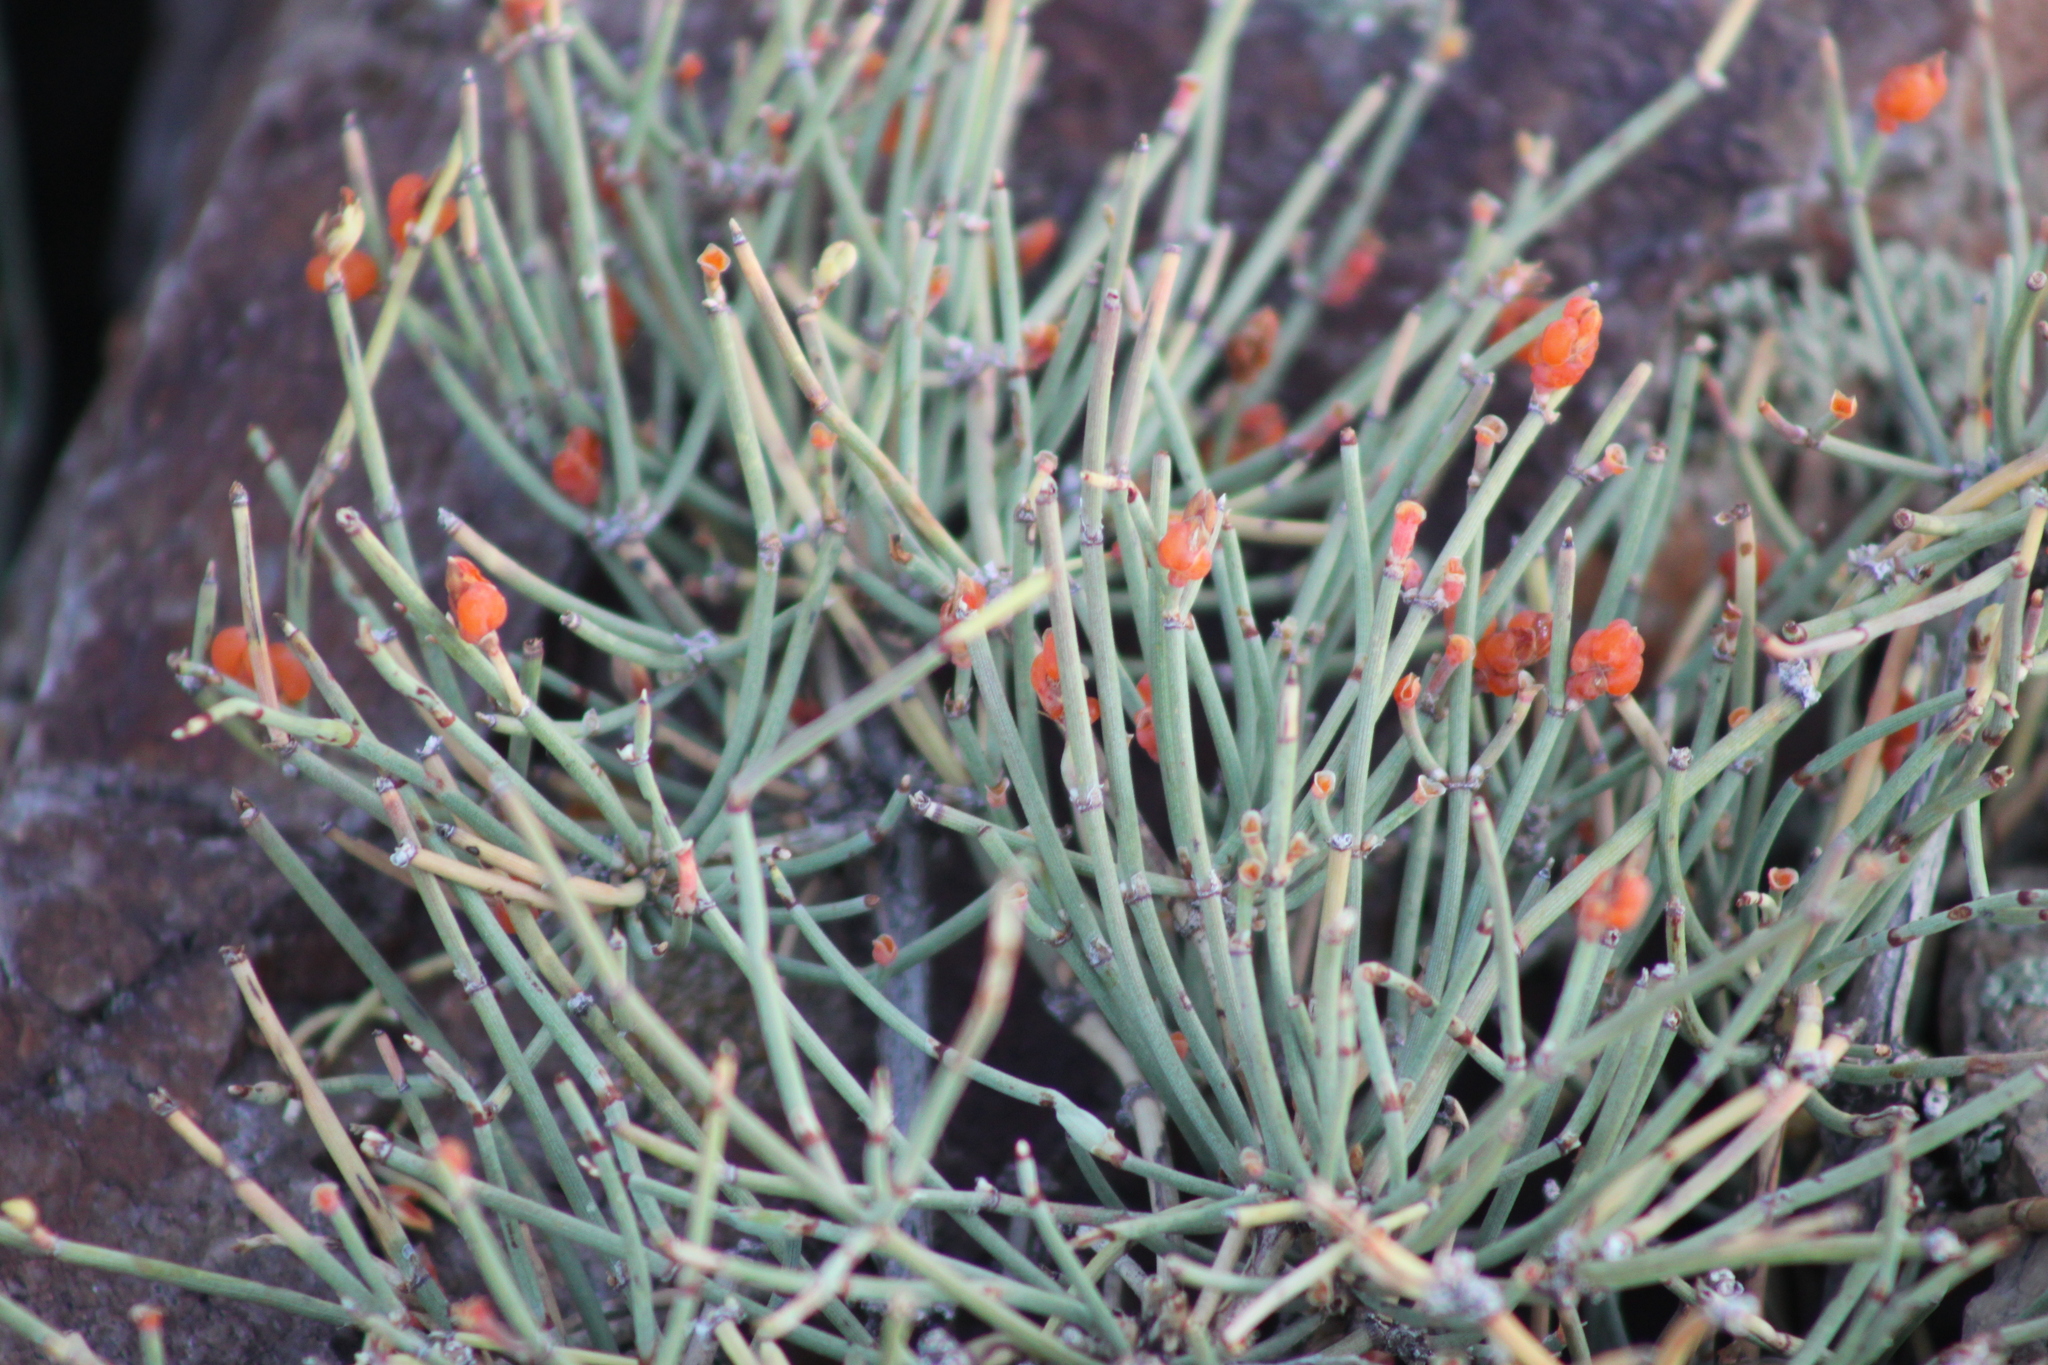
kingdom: Plantae
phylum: Tracheophyta
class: Gnetopsida
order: Ephedrales
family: Ephedraceae
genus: Ephedra
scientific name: Ephedra distachya
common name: Sea grape
